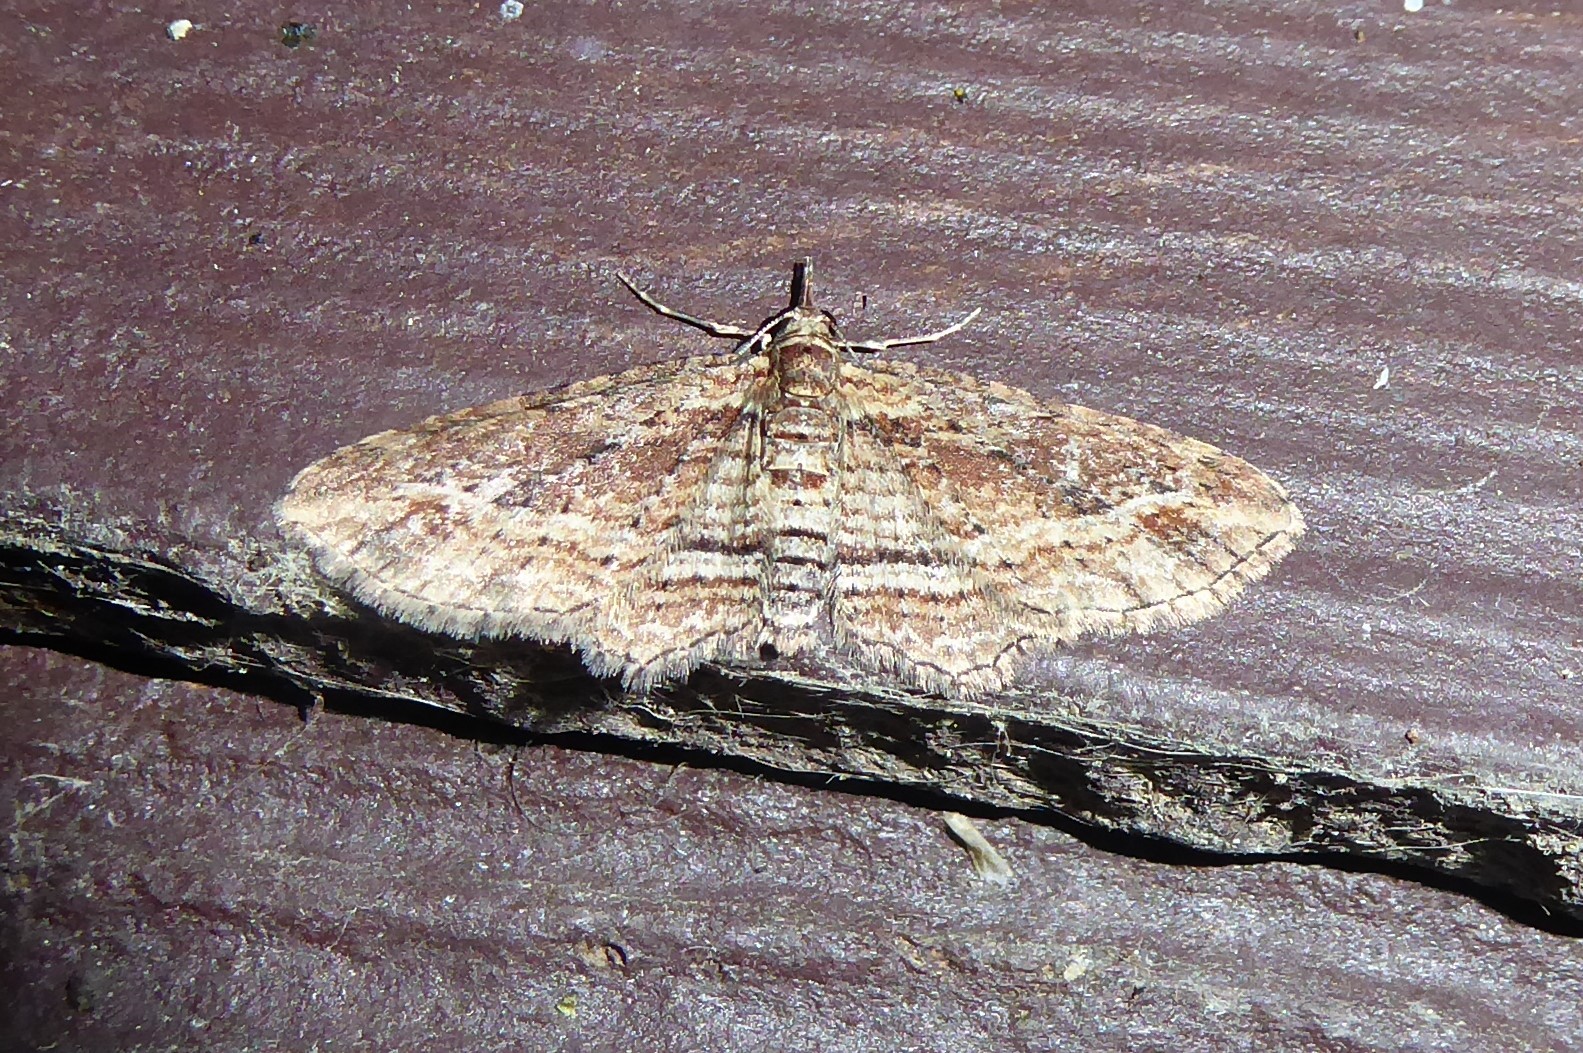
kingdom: Animalia
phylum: Arthropoda
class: Insecta
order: Lepidoptera
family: Geometridae
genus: Chloroclystis
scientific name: Chloroclystis filata
